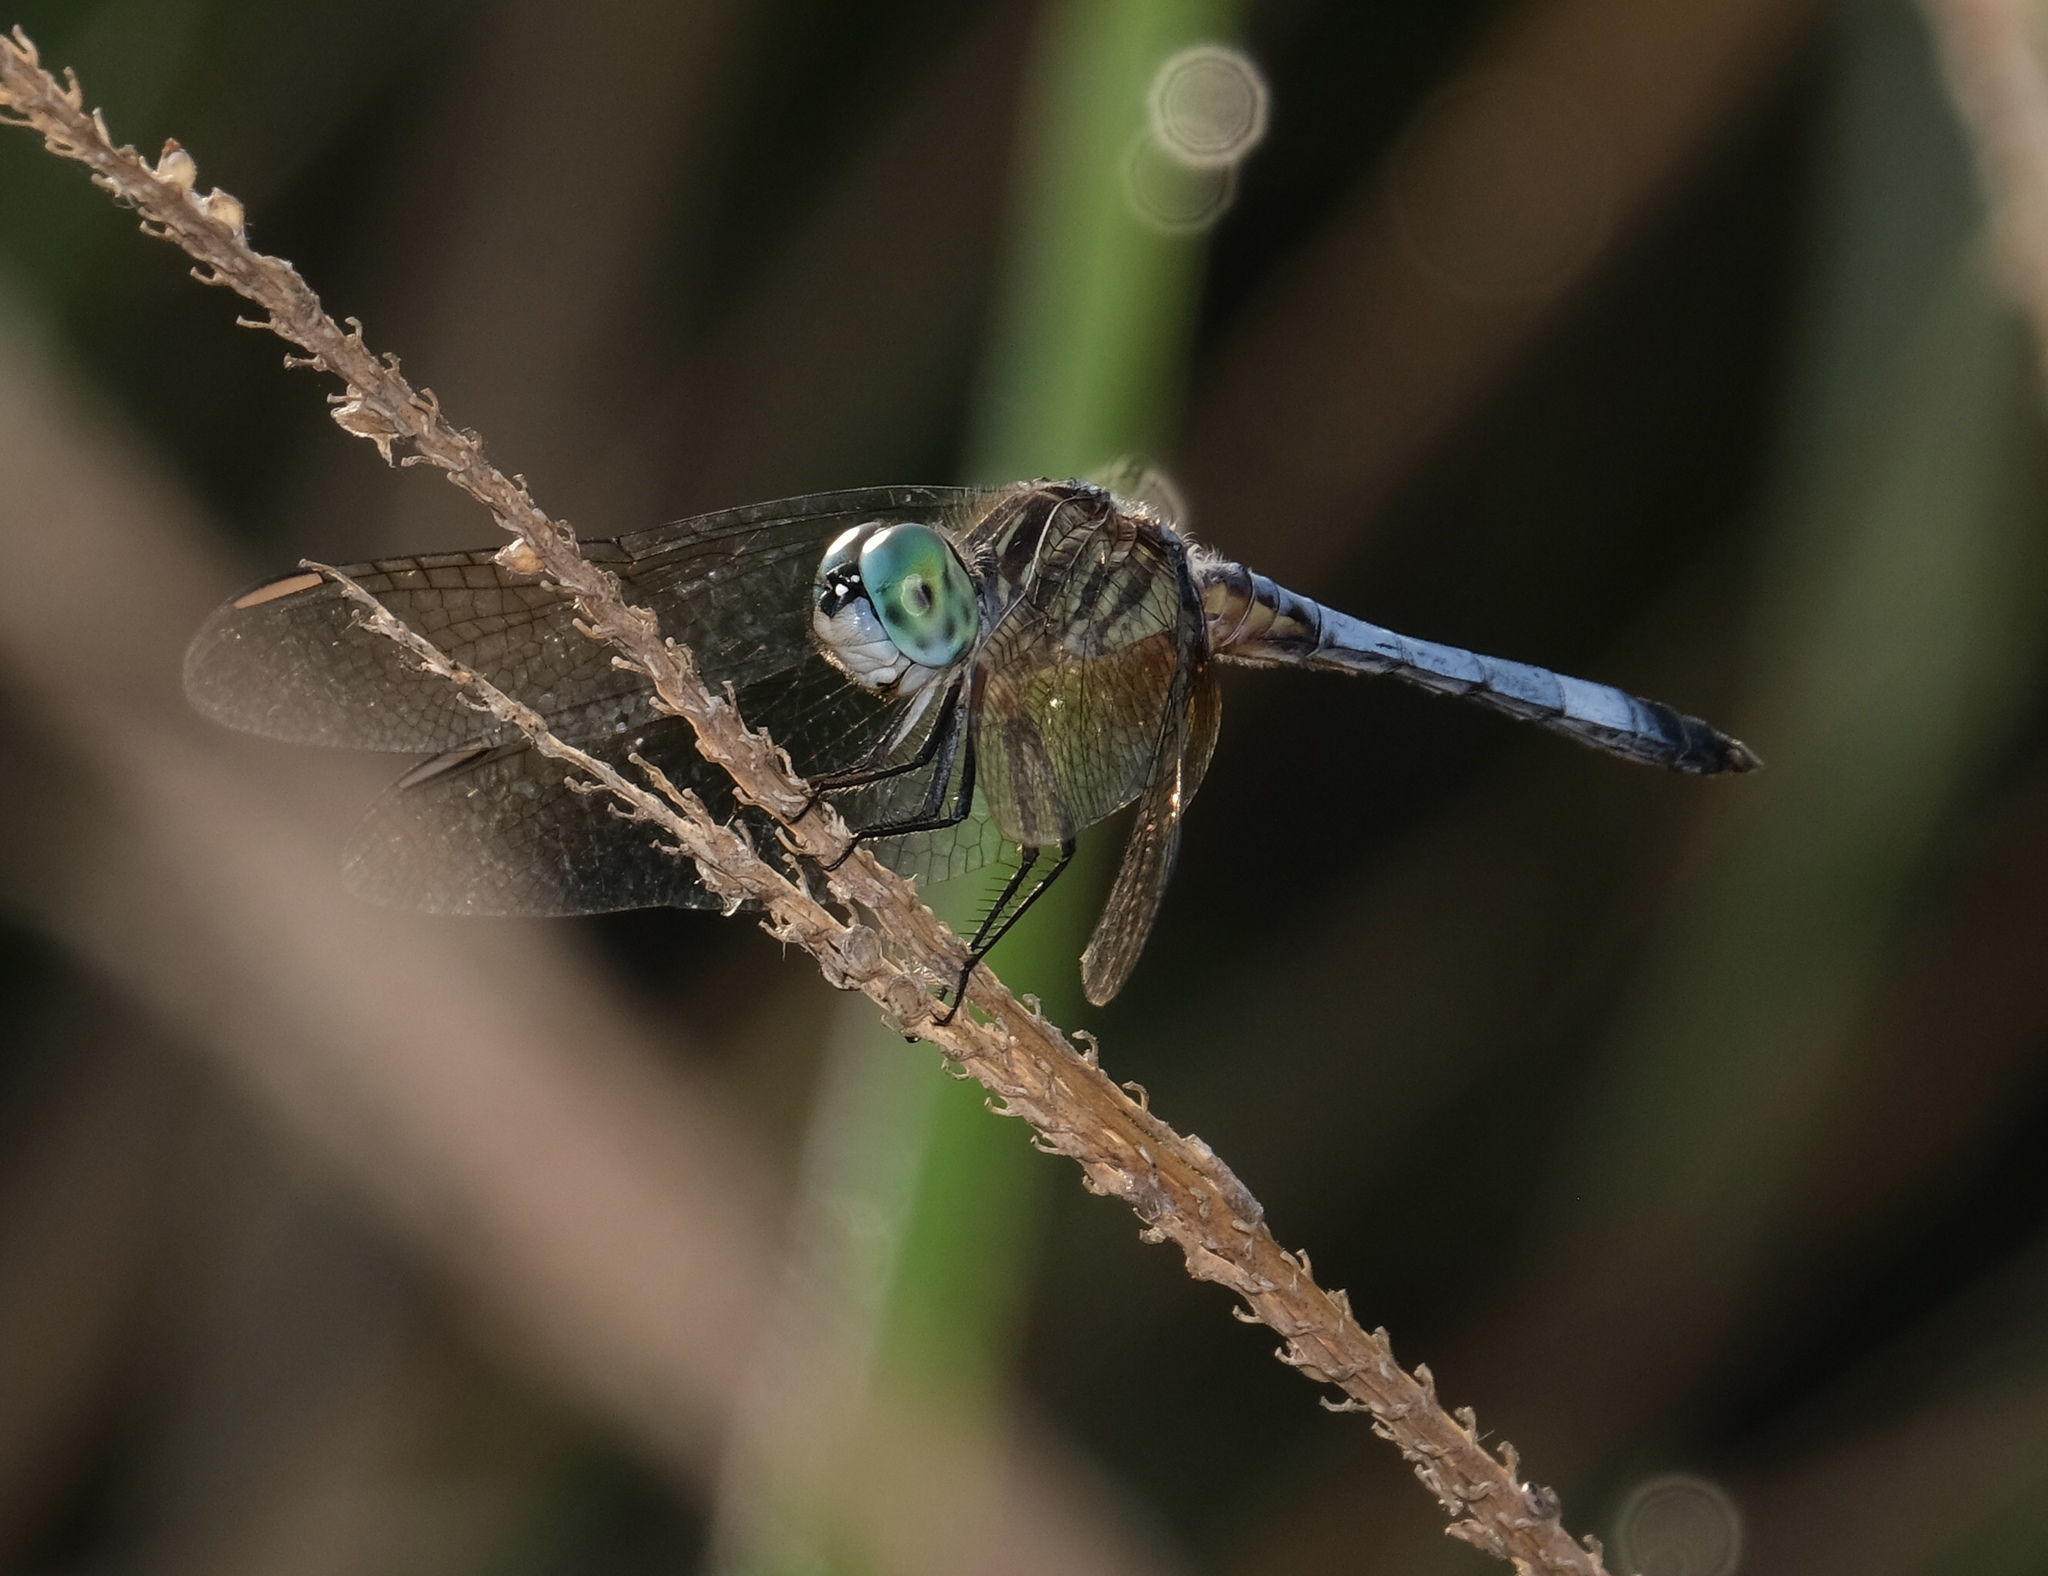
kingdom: Animalia
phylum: Arthropoda
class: Insecta
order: Odonata
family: Libellulidae
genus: Pachydiplax
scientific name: Pachydiplax longipennis
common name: Blue dasher
